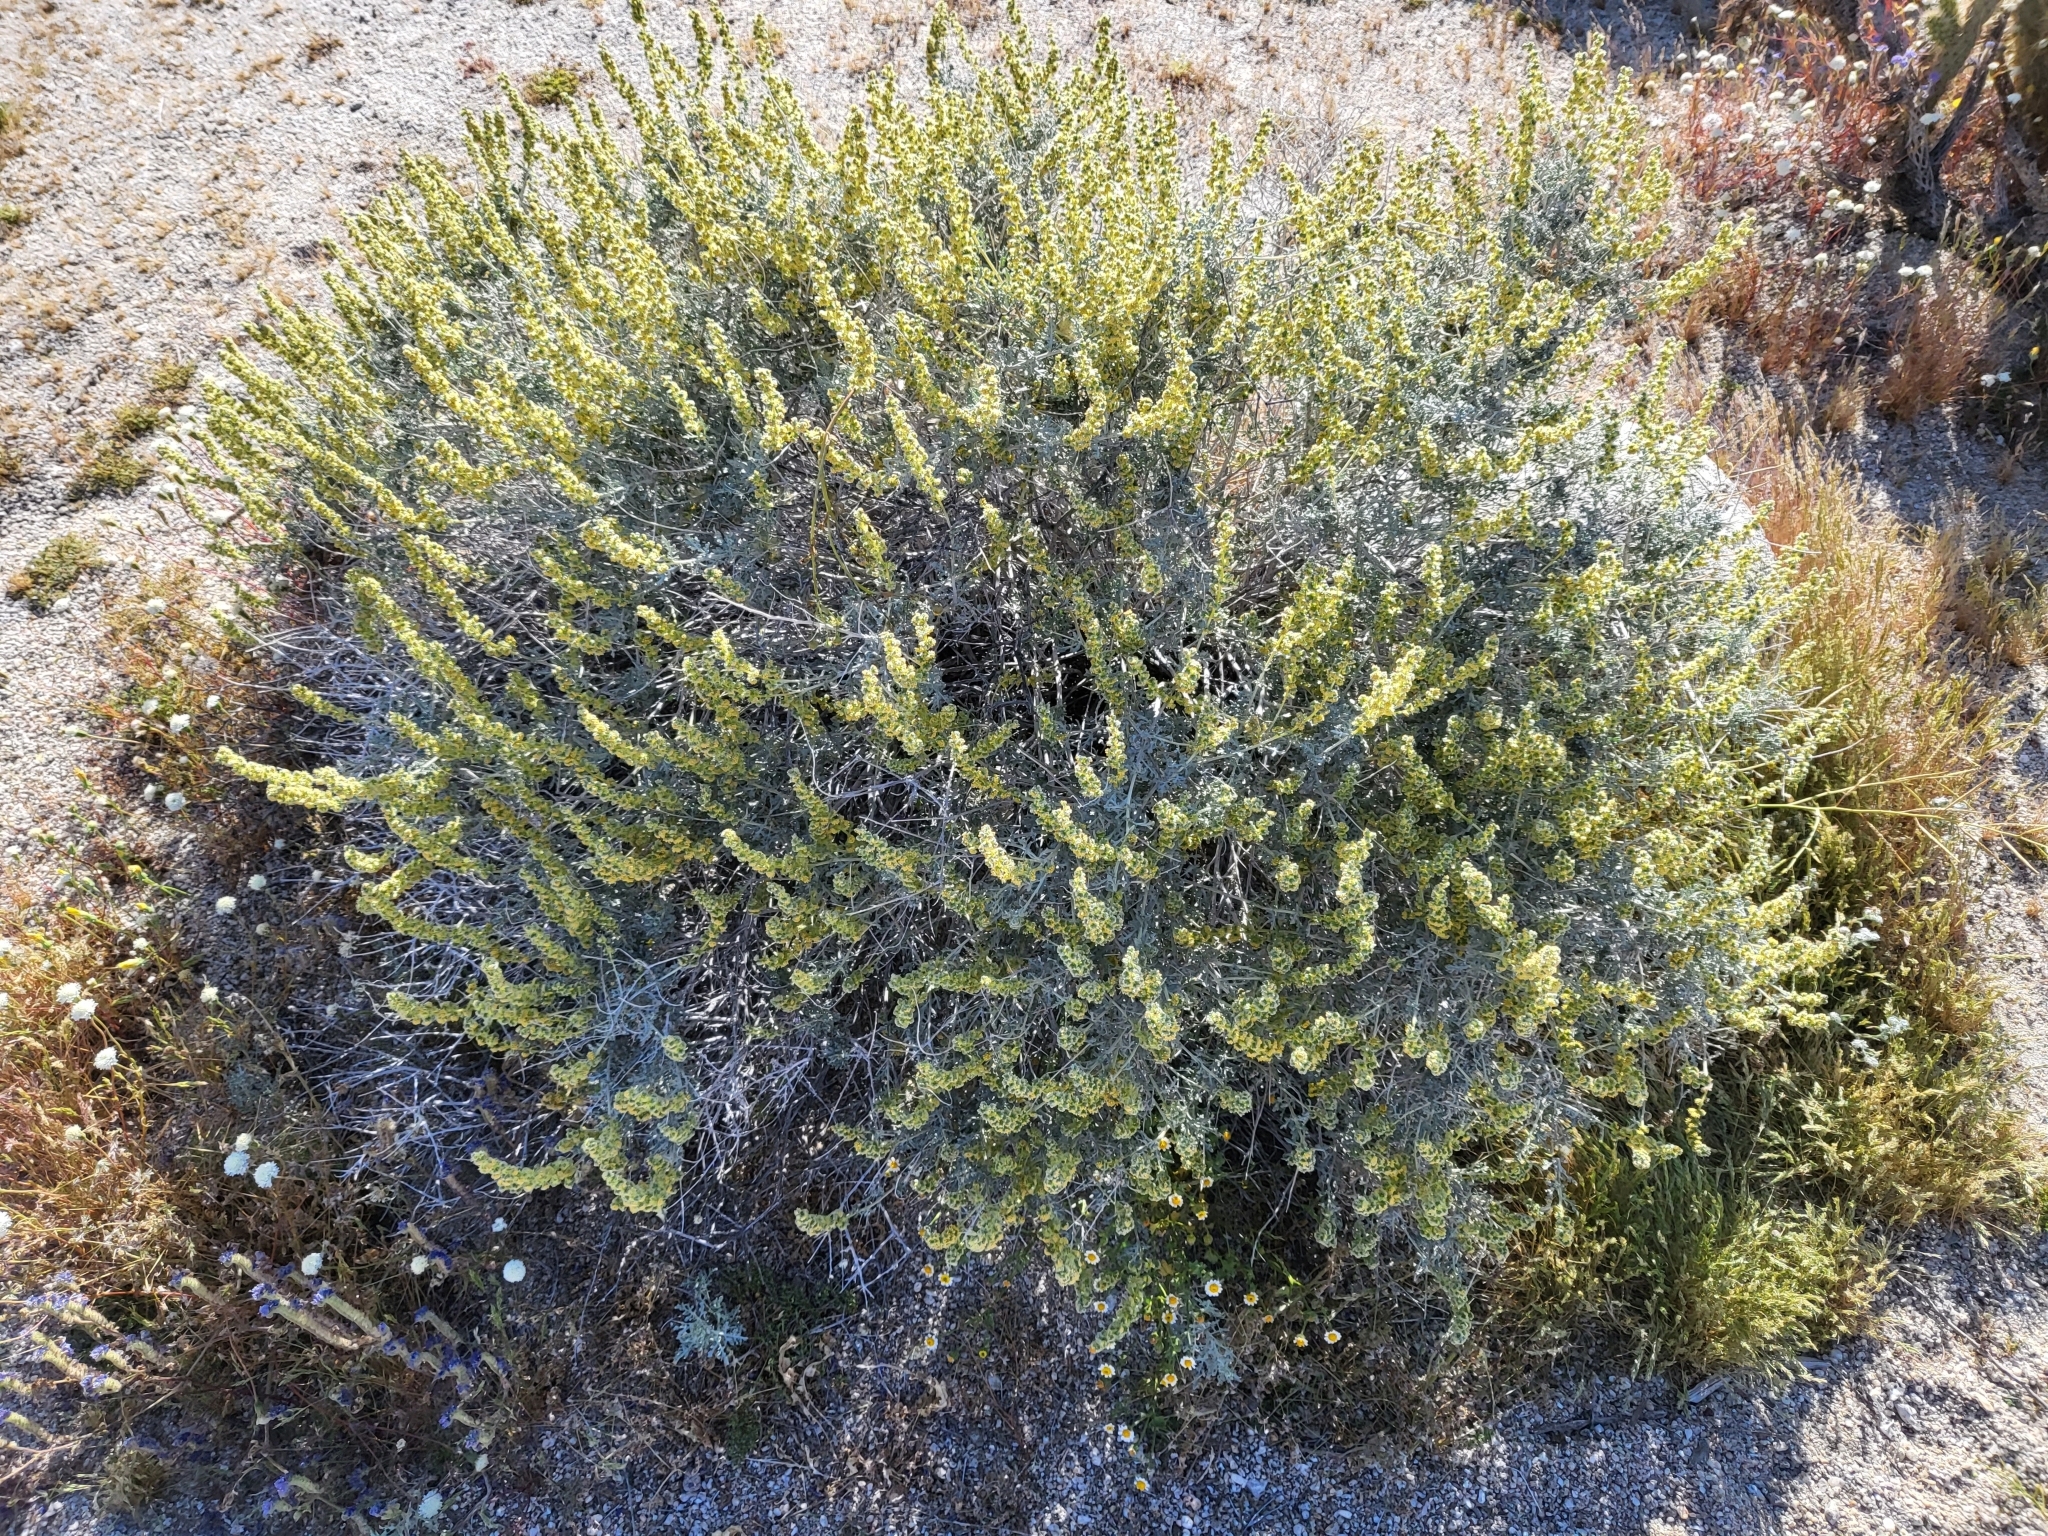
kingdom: Plantae
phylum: Tracheophyta
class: Magnoliopsida
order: Asterales
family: Asteraceae
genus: Ambrosia
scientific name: Ambrosia dumosa
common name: Bur-sage
